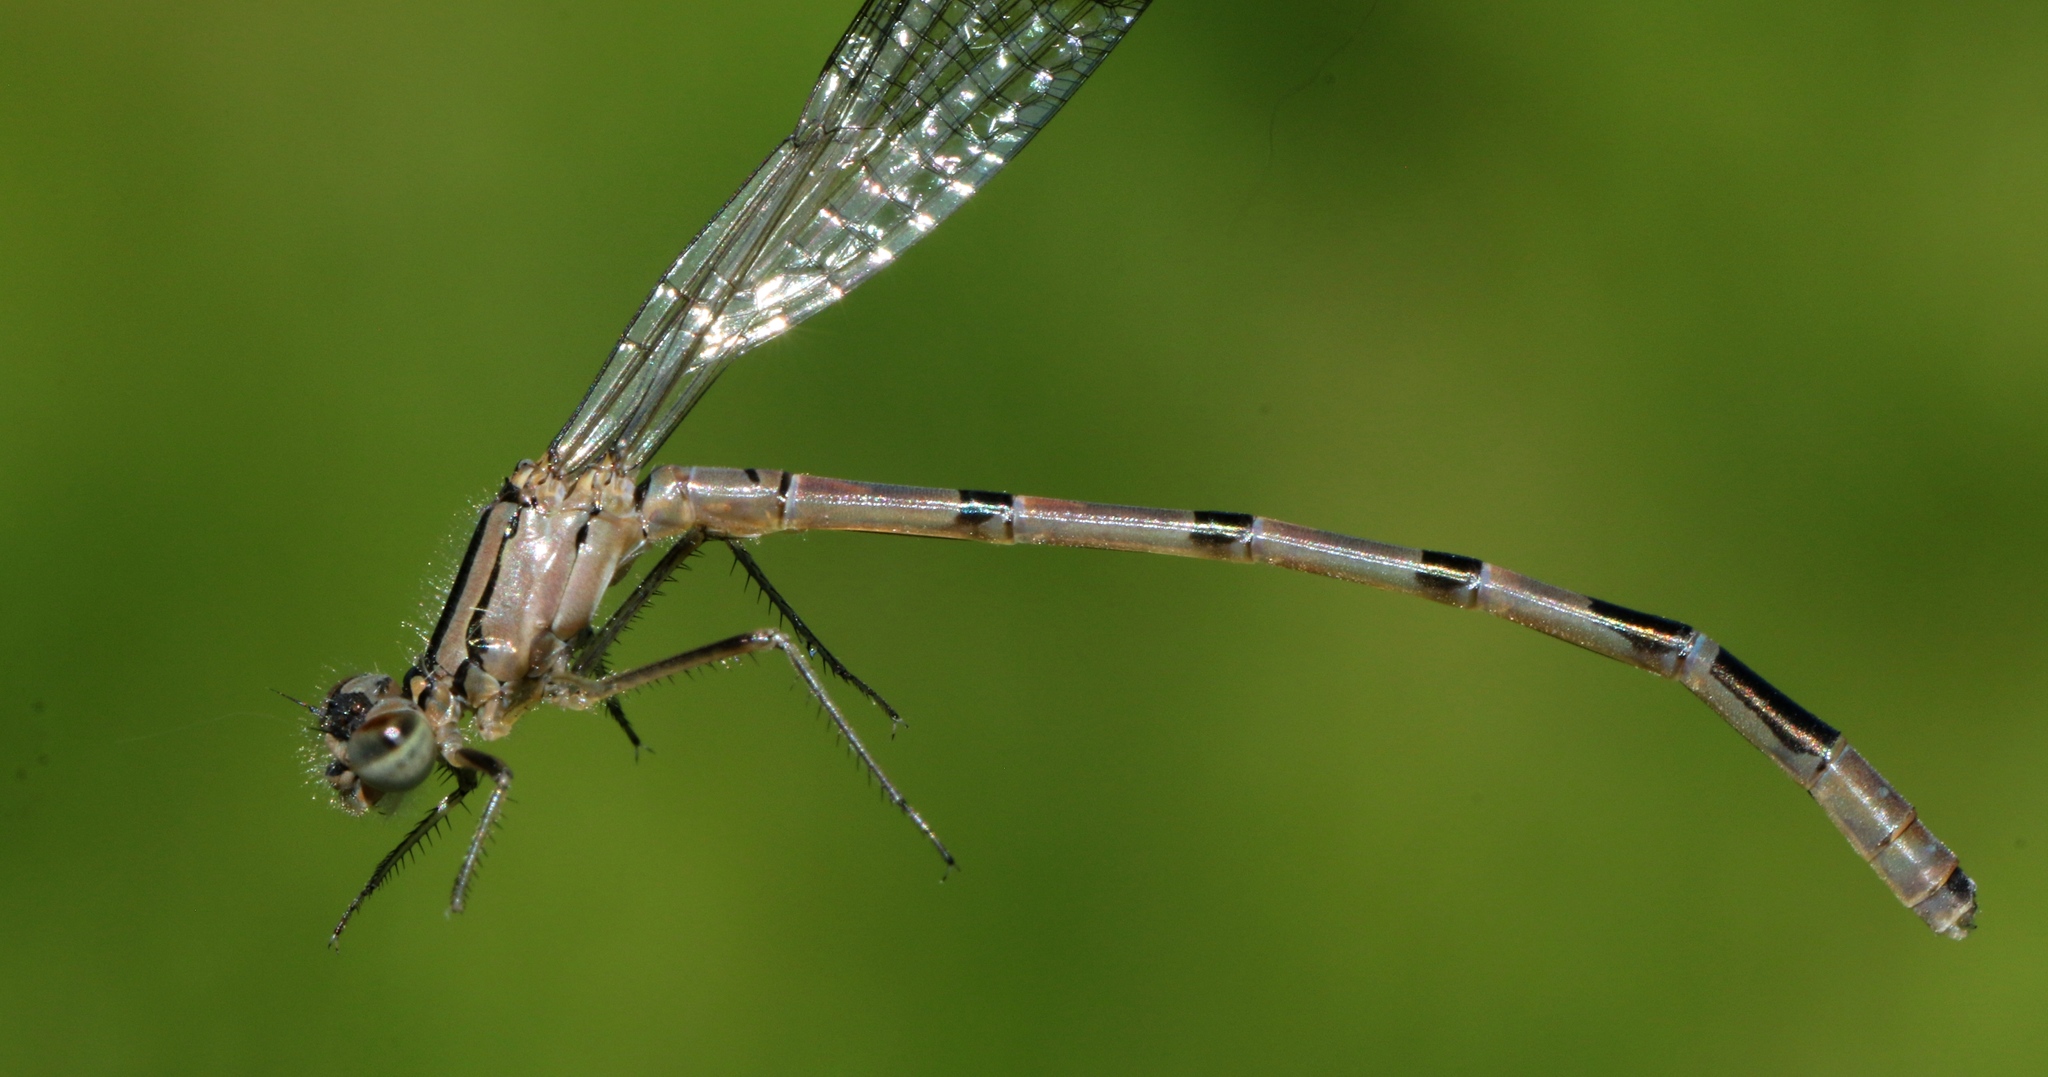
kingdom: Animalia
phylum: Arthropoda
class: Insecta
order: Odonata
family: Coenagrionidae
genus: Enallagma
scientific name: Enallagma hageni
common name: Hagen's bluet
